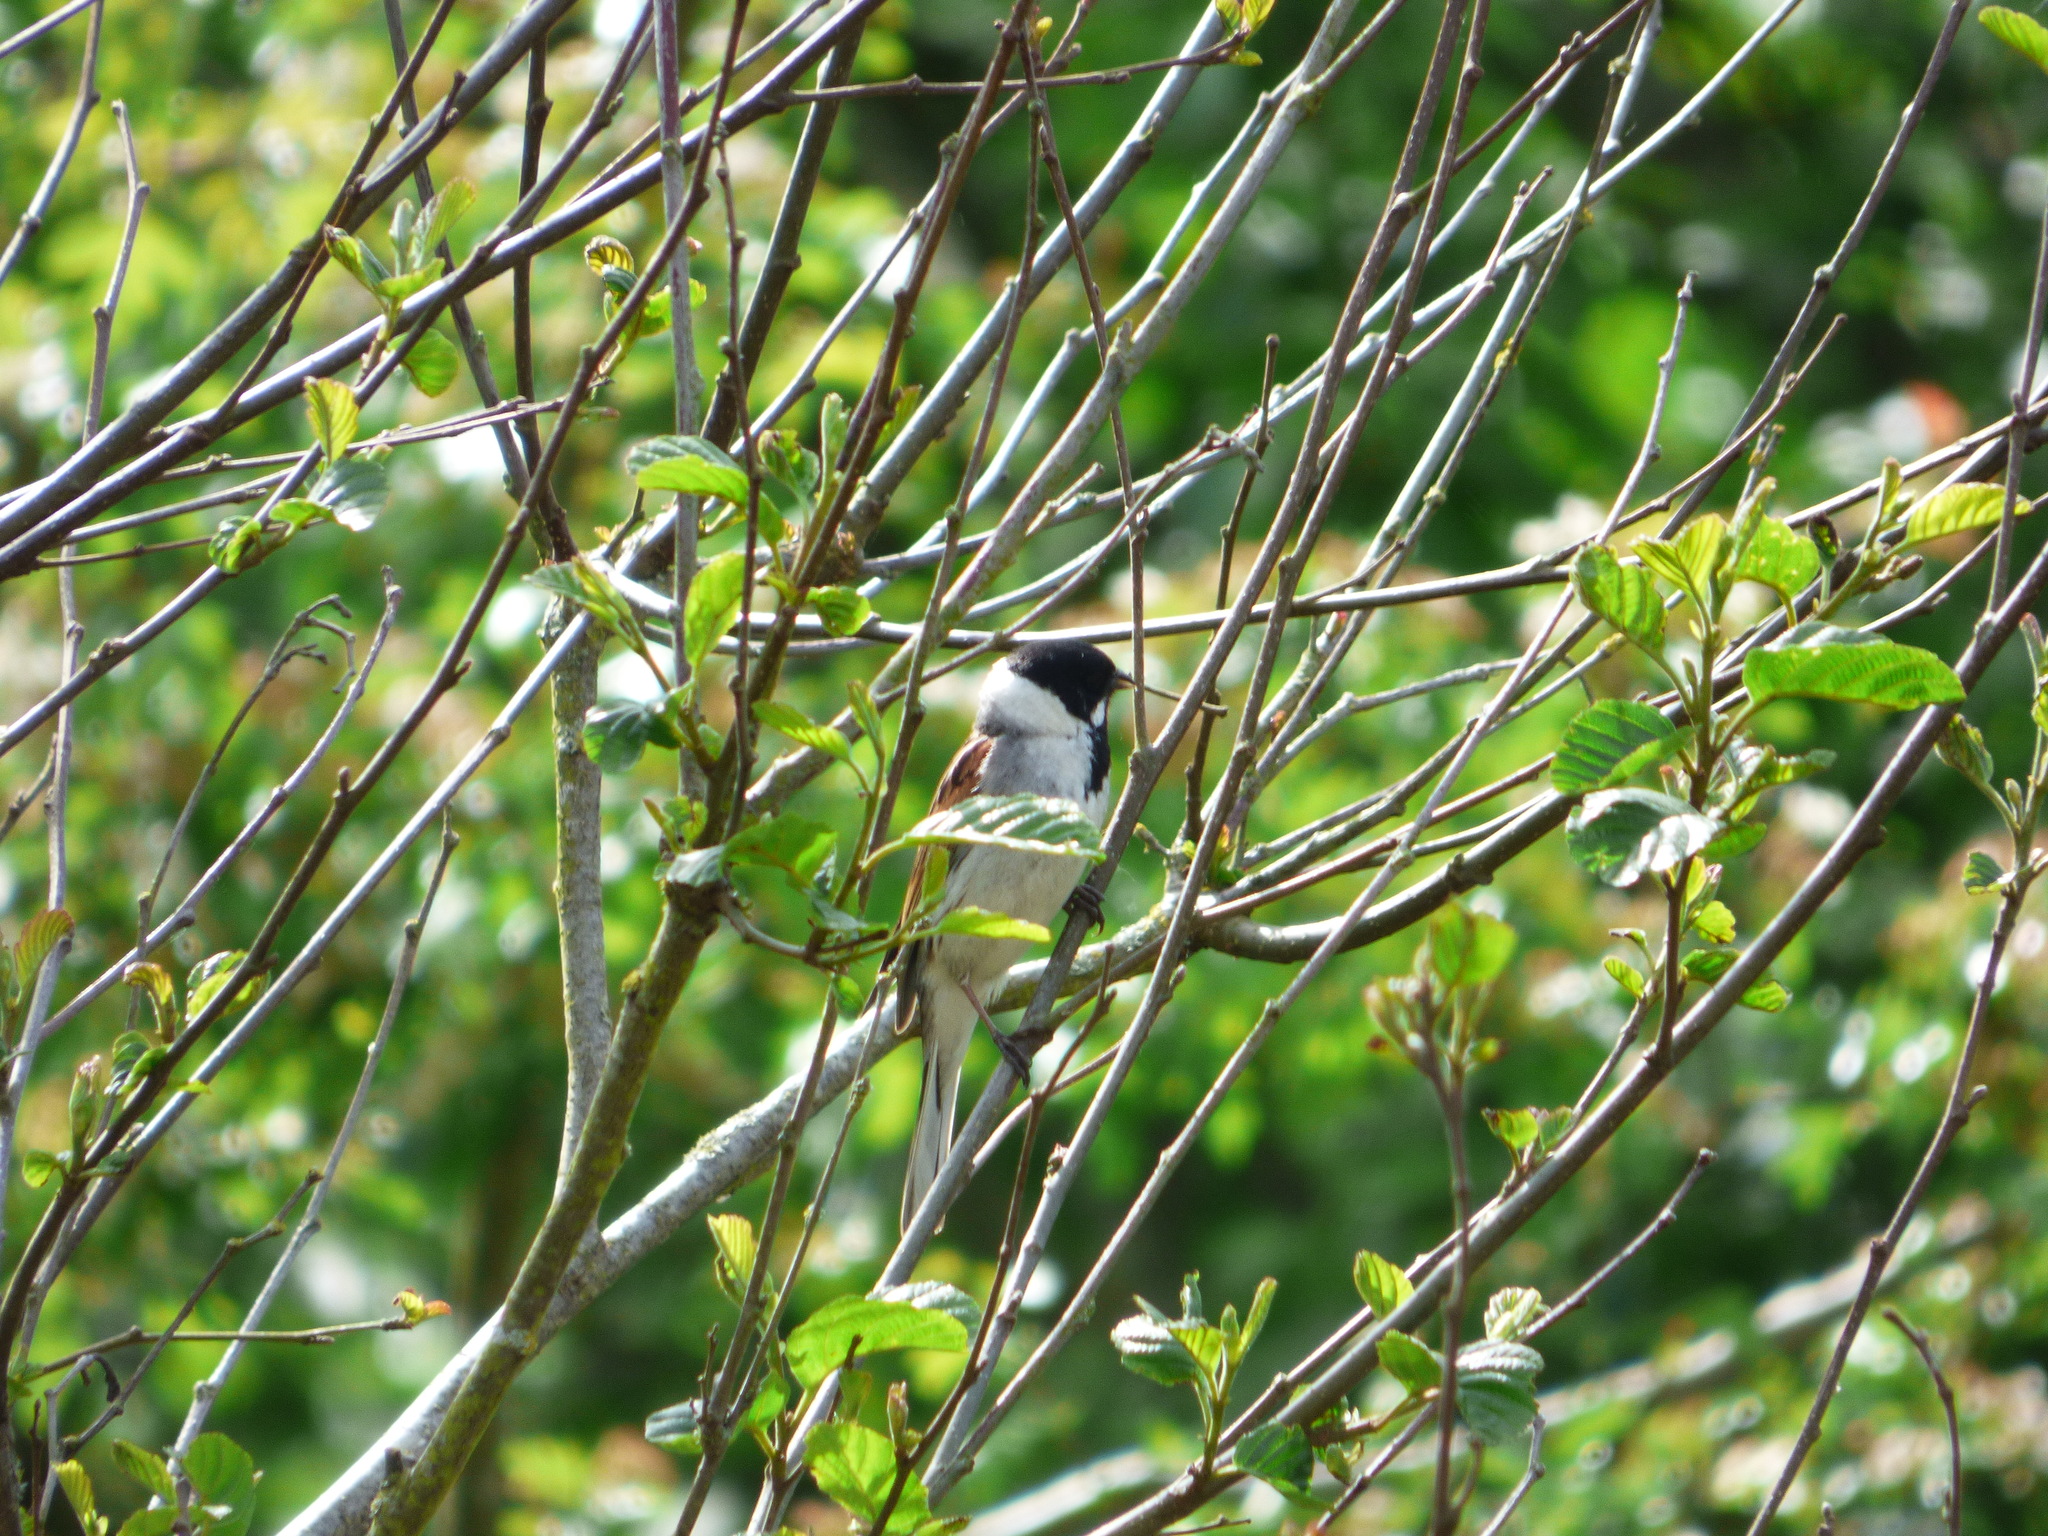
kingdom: Animalia
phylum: Chordata
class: Aves
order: Passeriformes
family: Emberizidae
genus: Emberiza
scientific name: Emberiza schoeniclus
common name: Reed bunting
